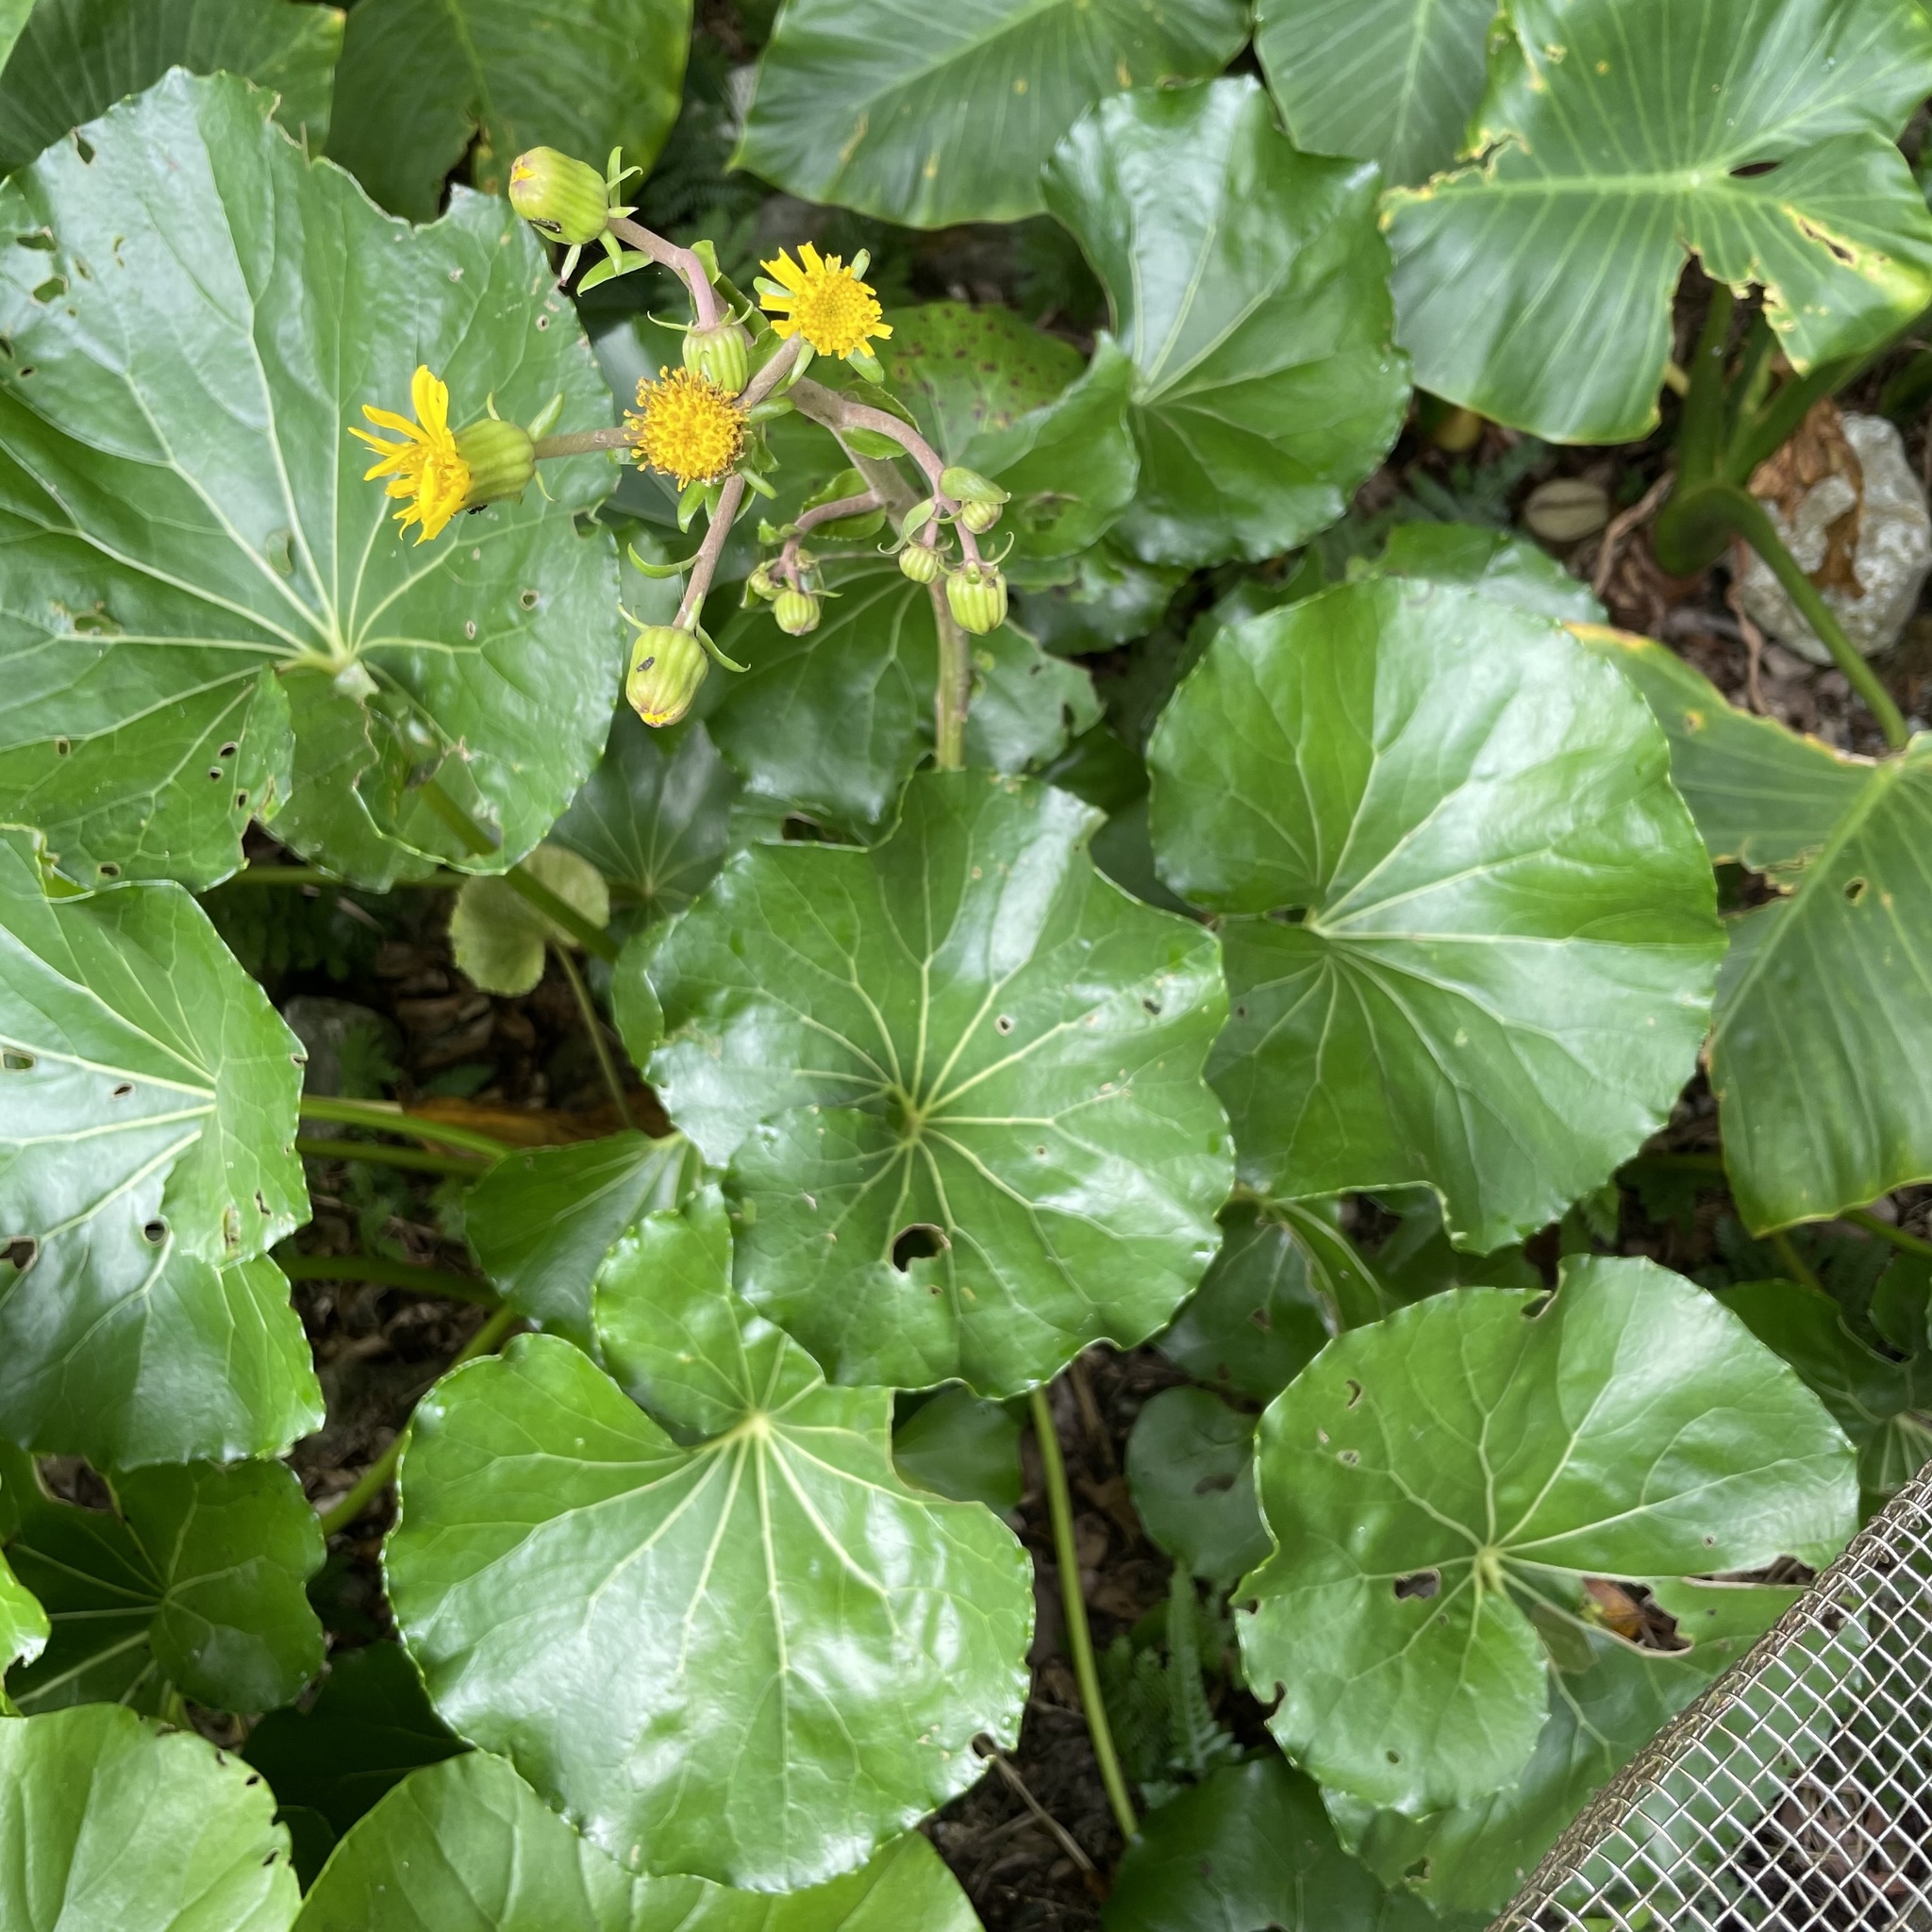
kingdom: Plantae
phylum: Tracheophyta
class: Magnoliopsida
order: Asterales
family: Asteraceae
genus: Farfugium
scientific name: Farfugium japonicum
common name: Leopardplant
